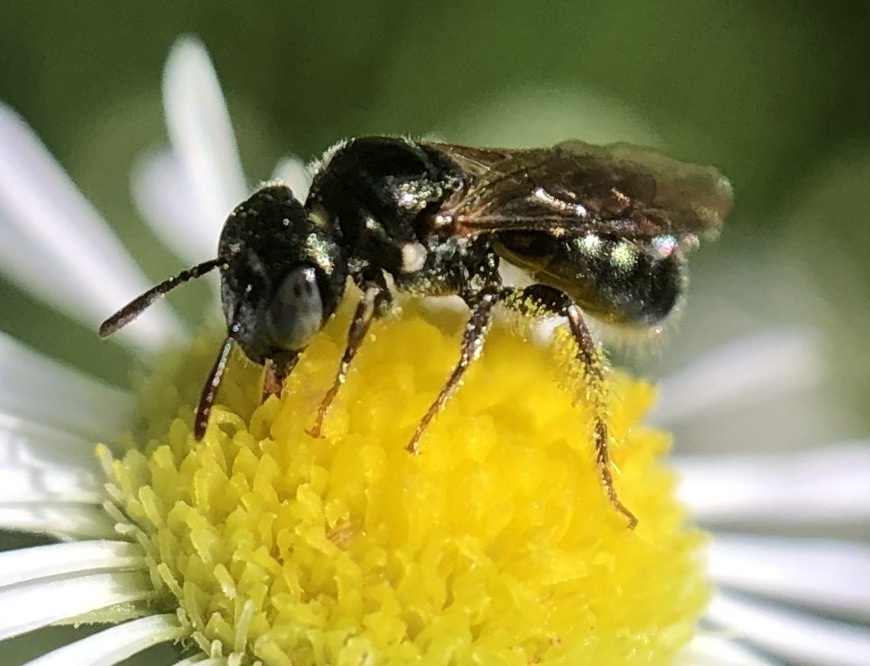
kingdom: Animalia
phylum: Arthropoda
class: Insecta
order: Hymenoptera
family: Apidae
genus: Ceratina
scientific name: Ceratina strenua
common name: Nimble carpenter bee
